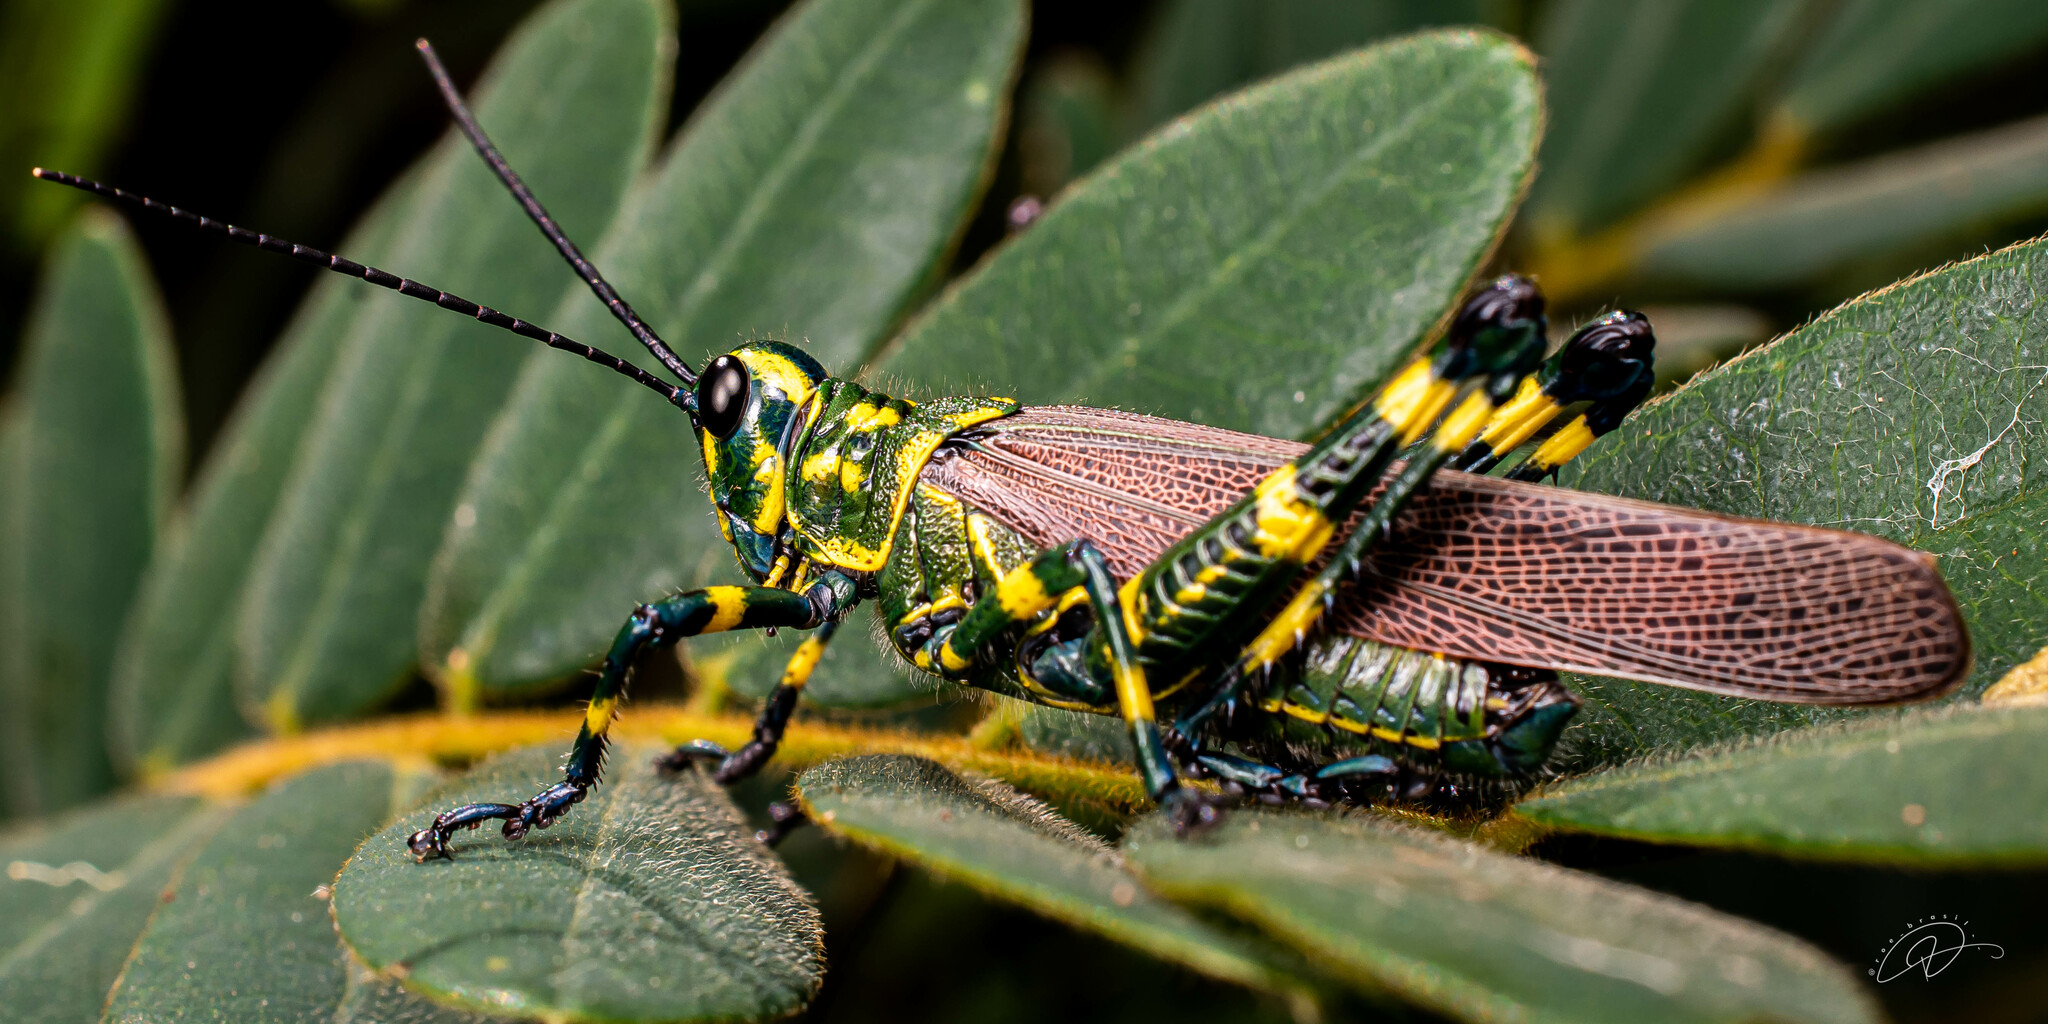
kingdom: Animalia
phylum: Arthropoda
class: Insecta
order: Orthoptera
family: Romaleidae
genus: Chromacris
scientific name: Chromacris speciosa
